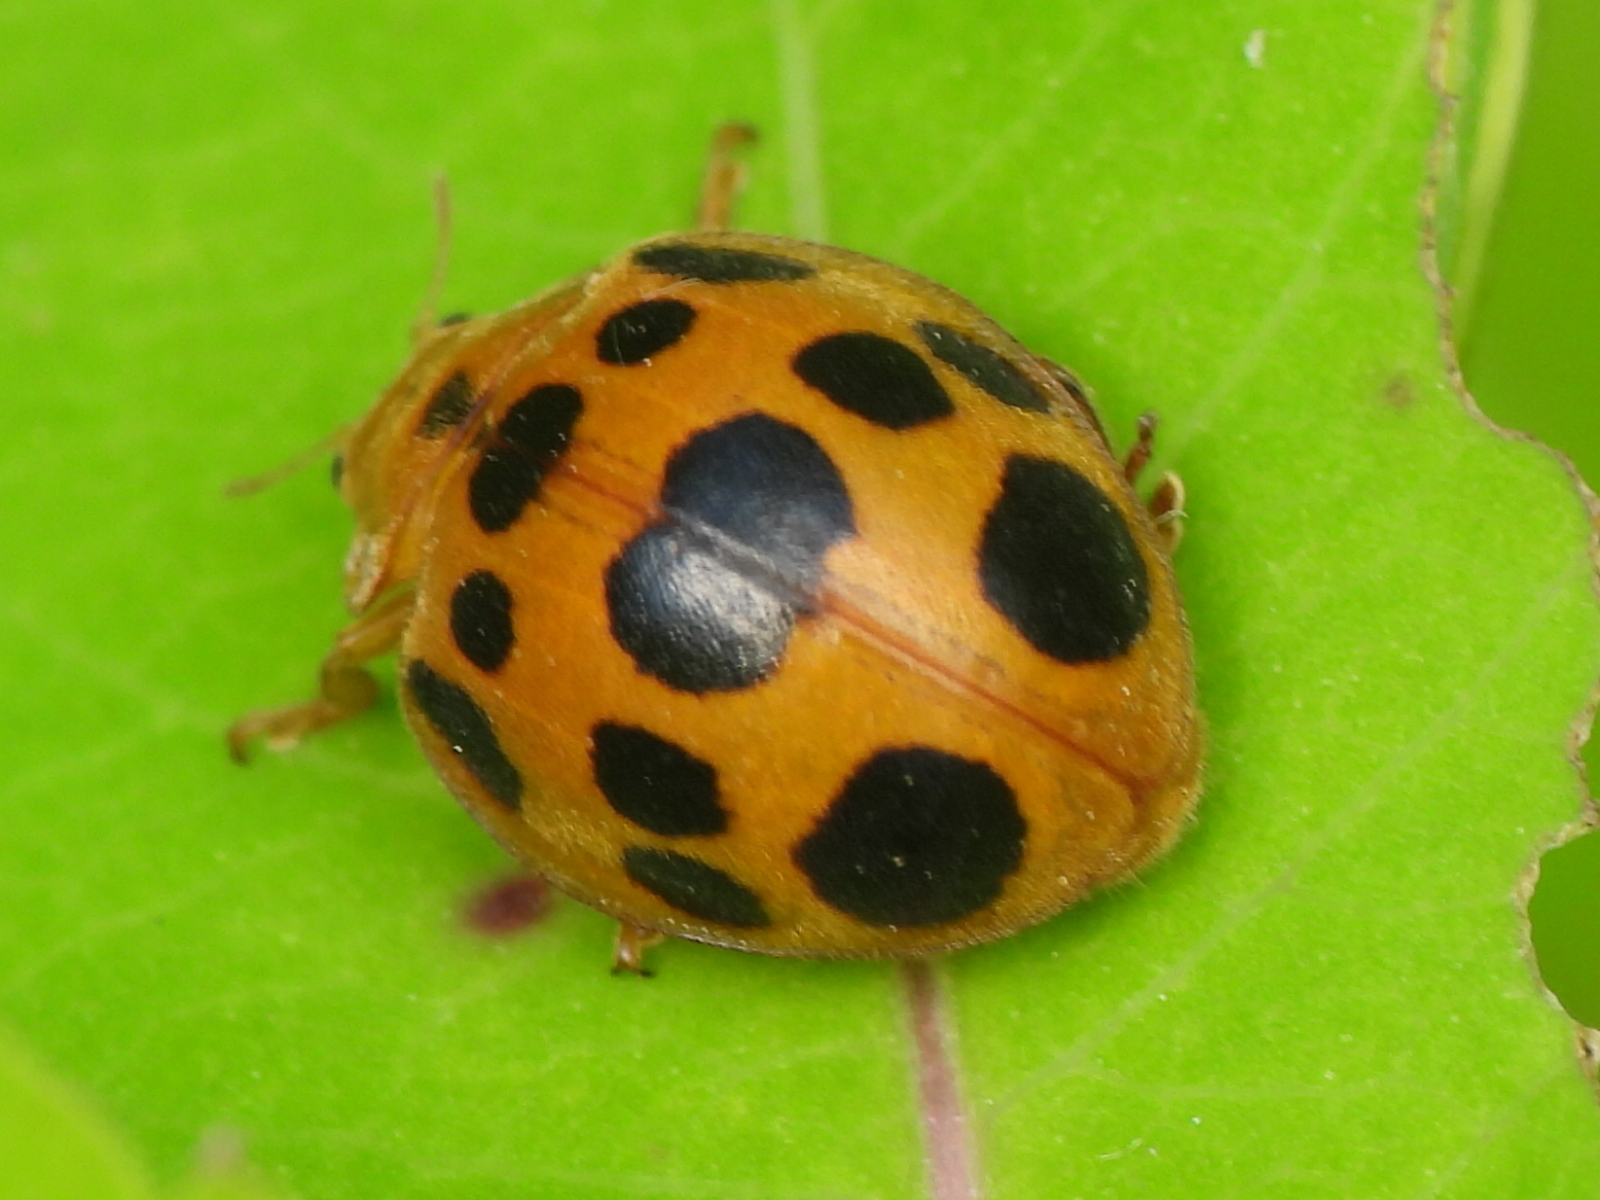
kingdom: Animalia
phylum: Arthropoda
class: Insecta
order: Coleoptera
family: Coccinellidae
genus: Epilachna
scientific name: Epilachna borealis
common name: Squash beetle
